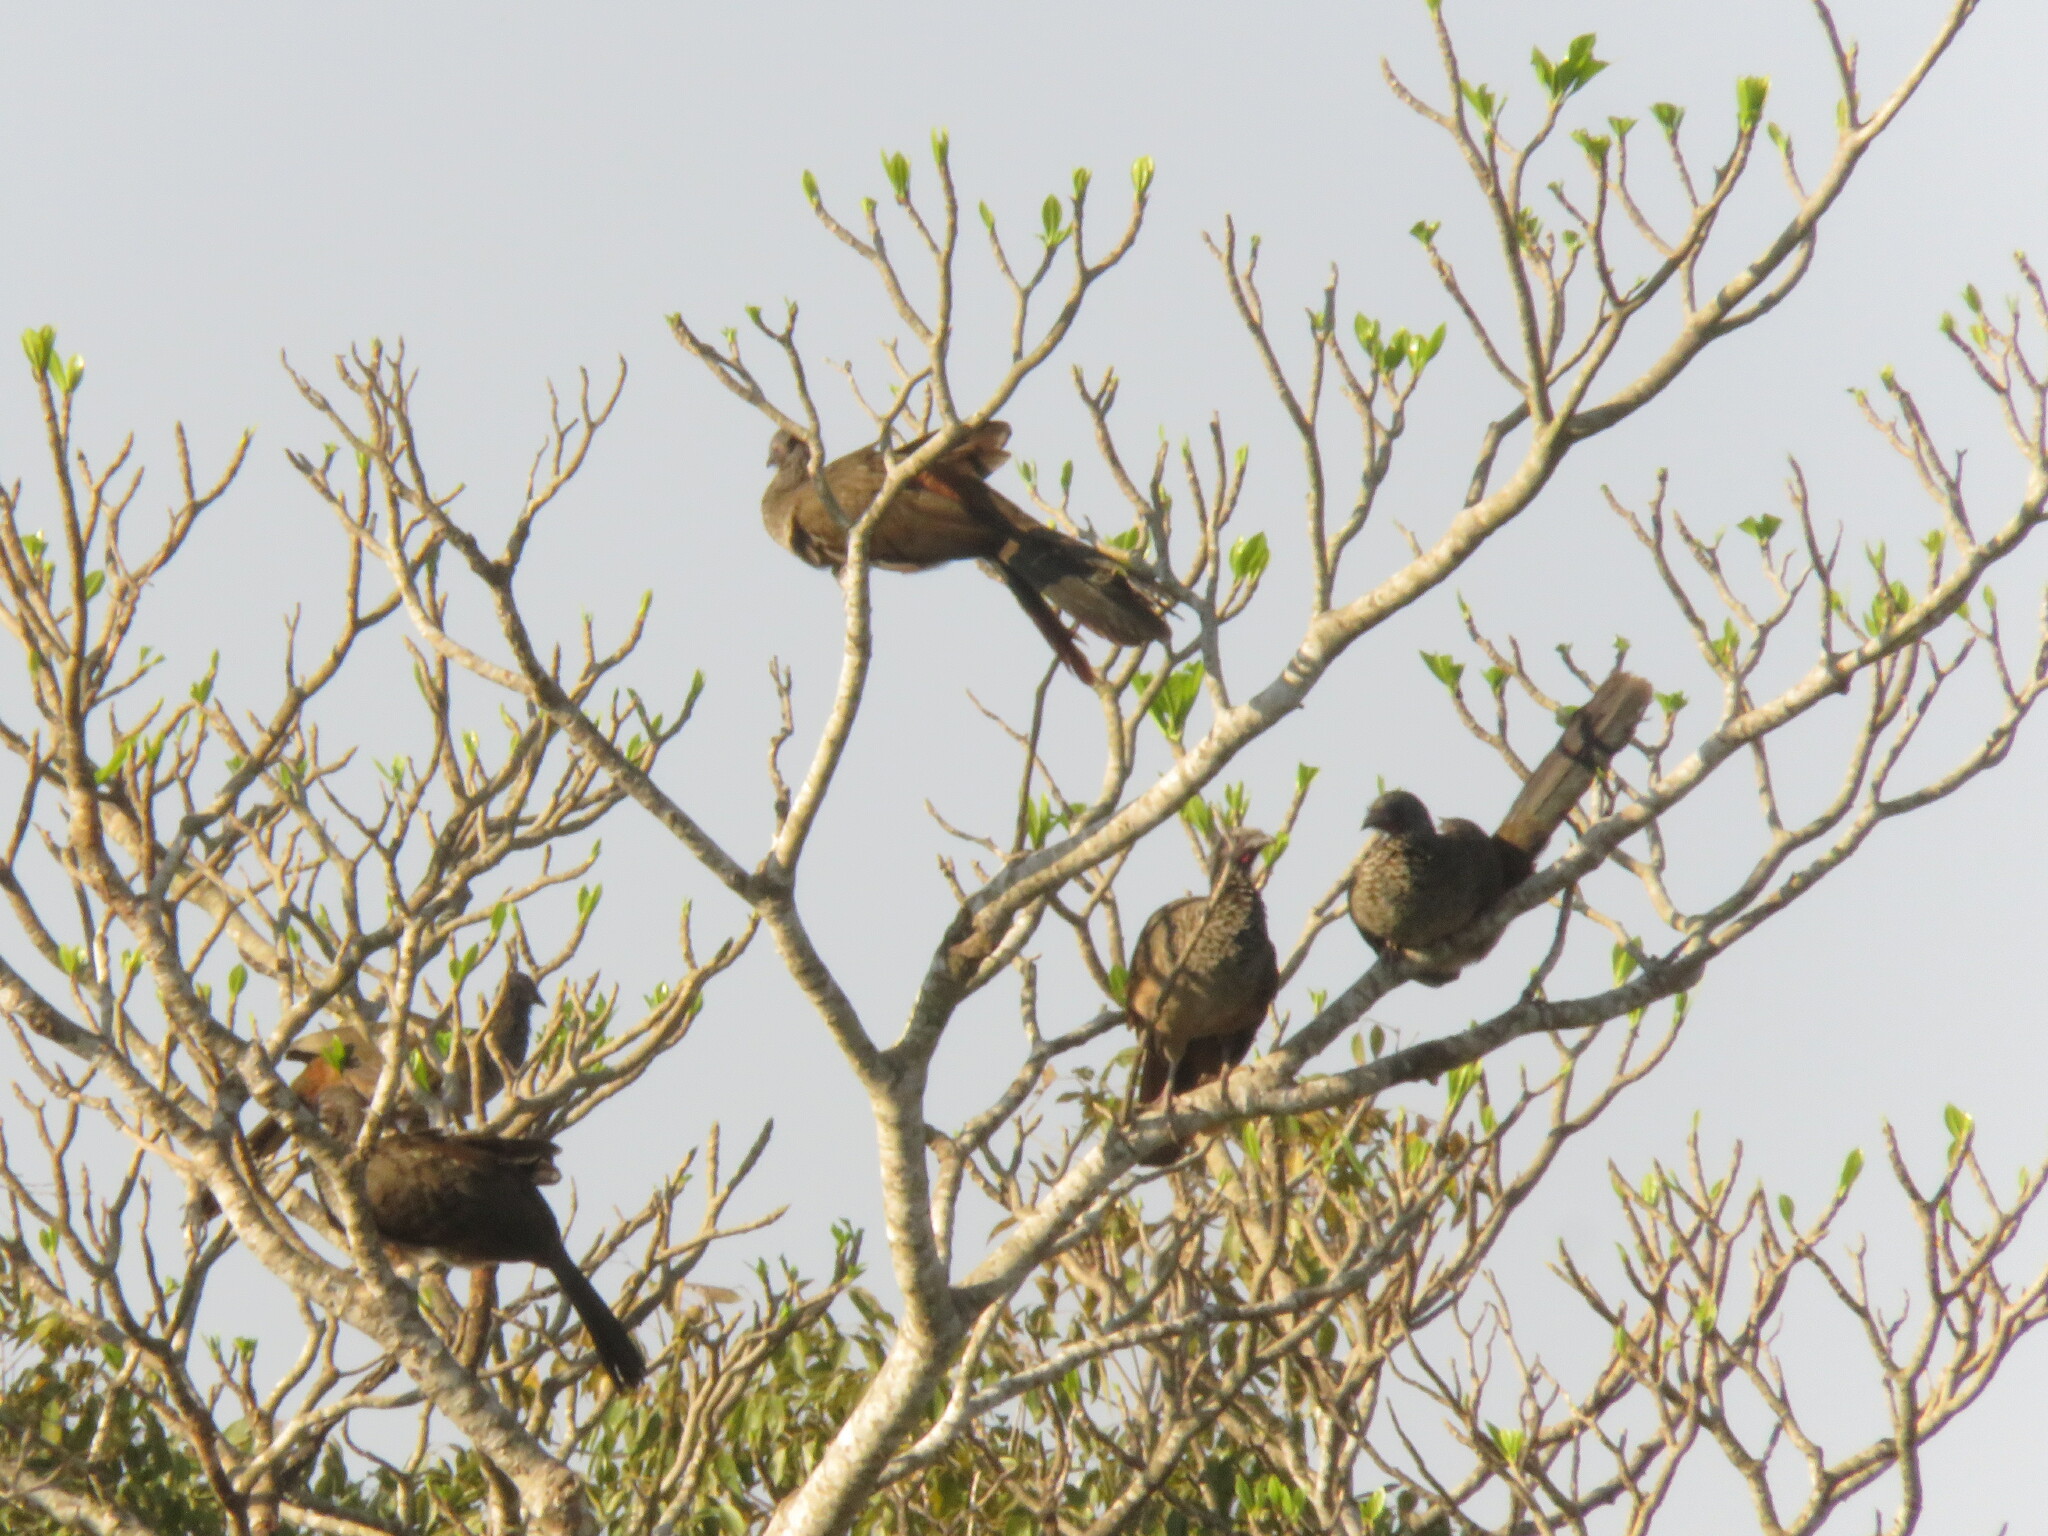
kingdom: Animalia
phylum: Chordata
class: Aves
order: Galliformes
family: Cracidae
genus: Ortalis
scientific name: Ortalis guttata
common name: Speckled chachalaca
